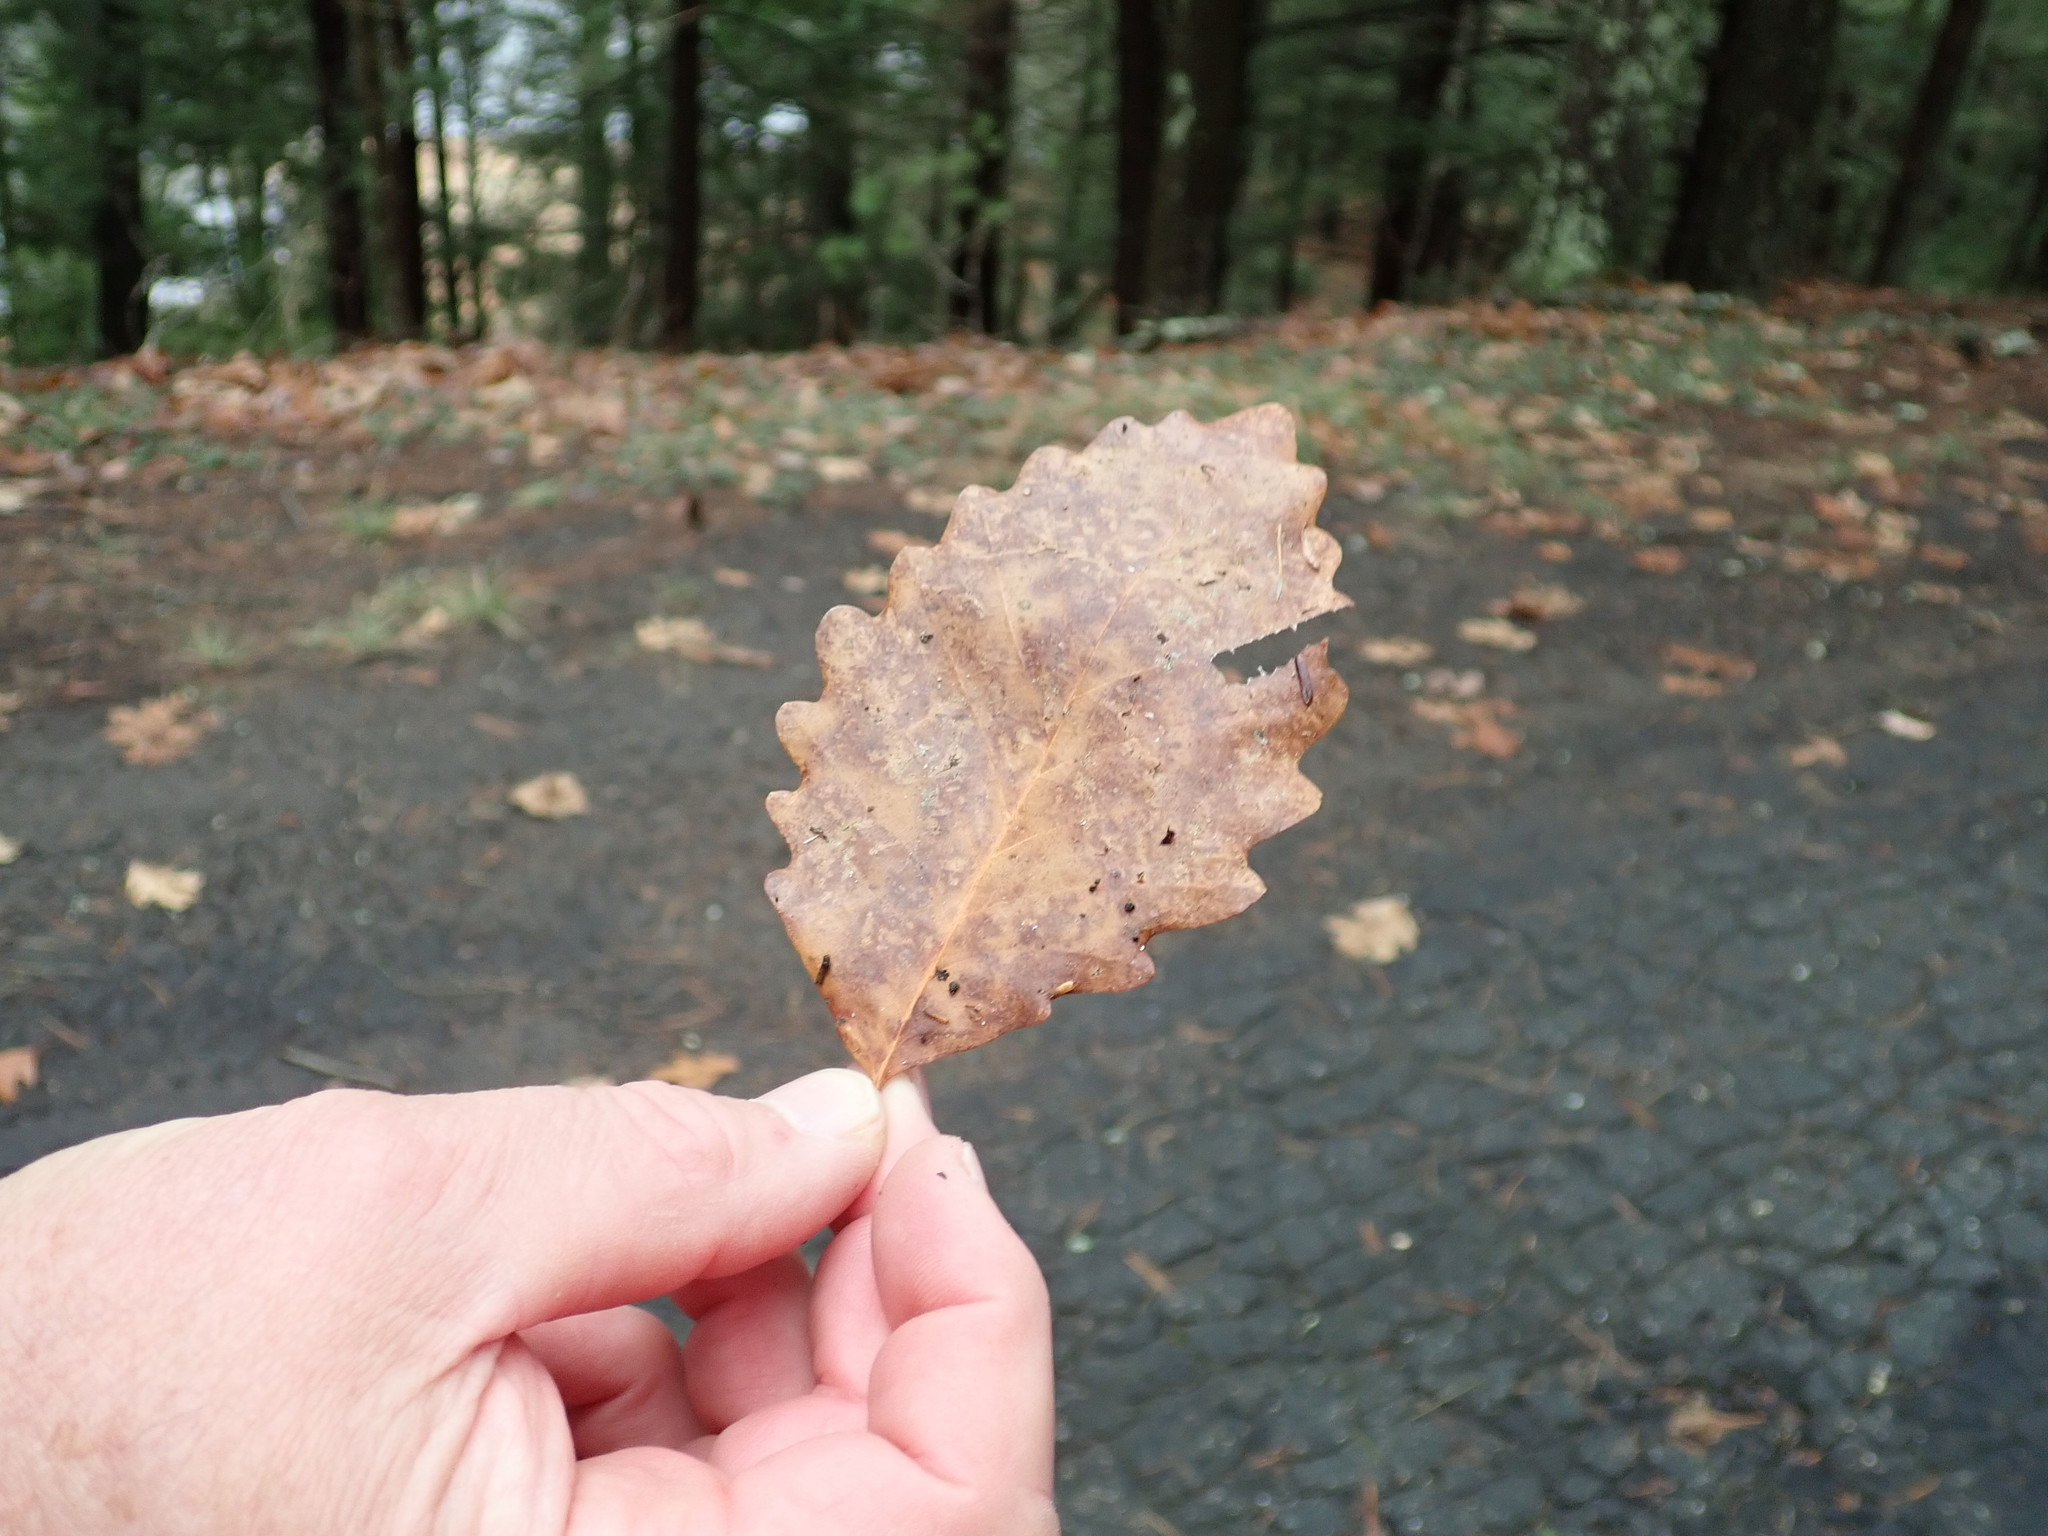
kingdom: Plantae
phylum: Tracheophyta
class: Magnoliopsida
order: Fagales
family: Fagaceae
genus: Quercus
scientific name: Quercus montana
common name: Chestnut oak
